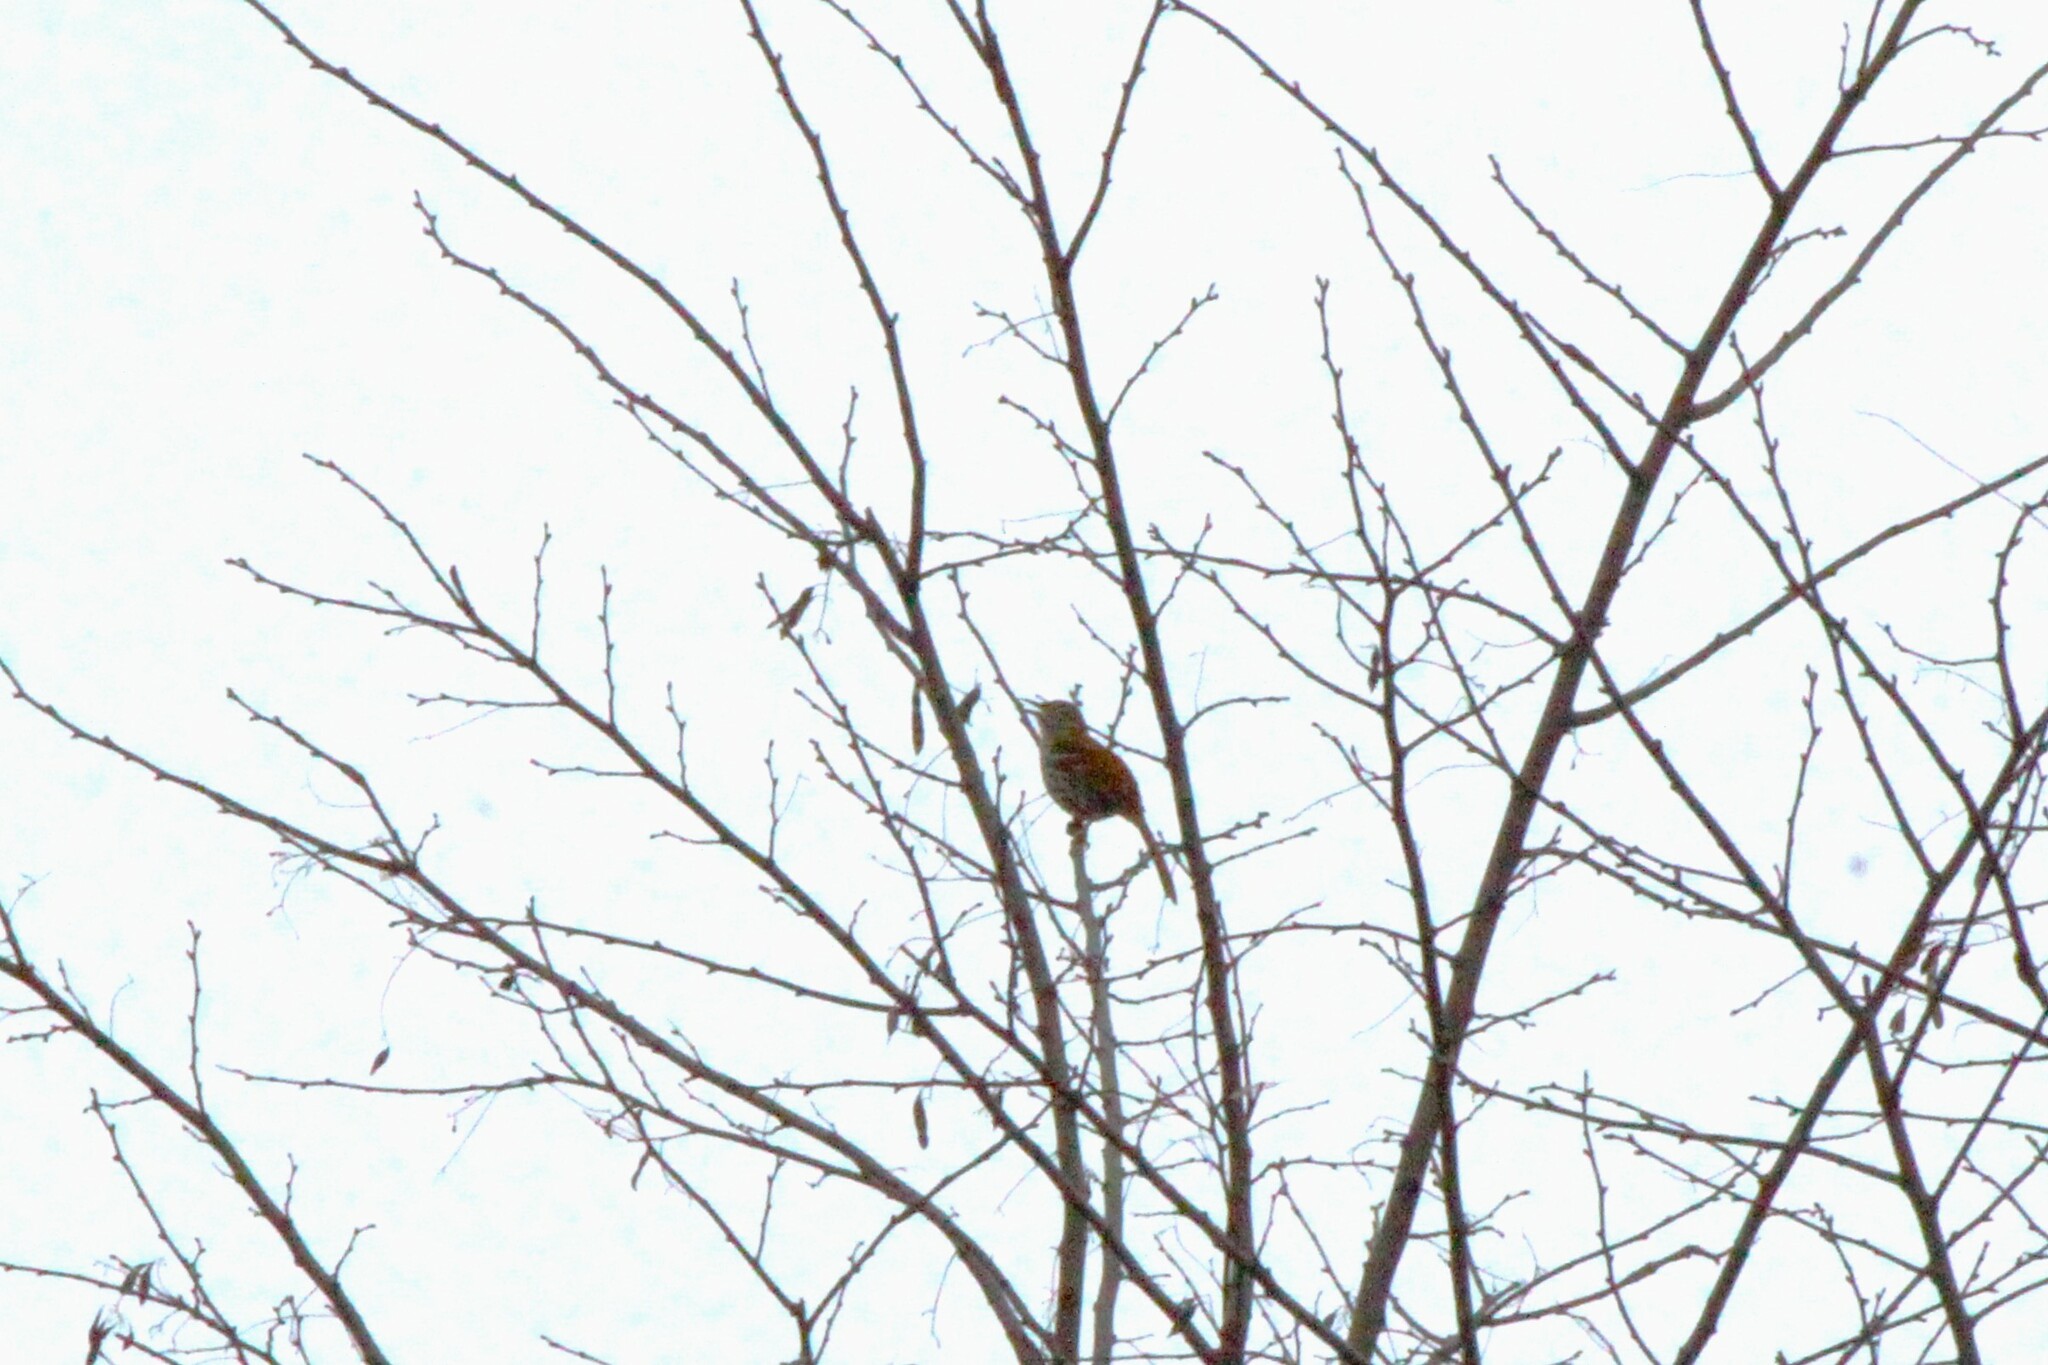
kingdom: Animalia
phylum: Chordata
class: Aves
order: Passeriformes
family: Mimidae
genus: Toxostoma
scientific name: Toxostoma rufum
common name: Brown thrasher
